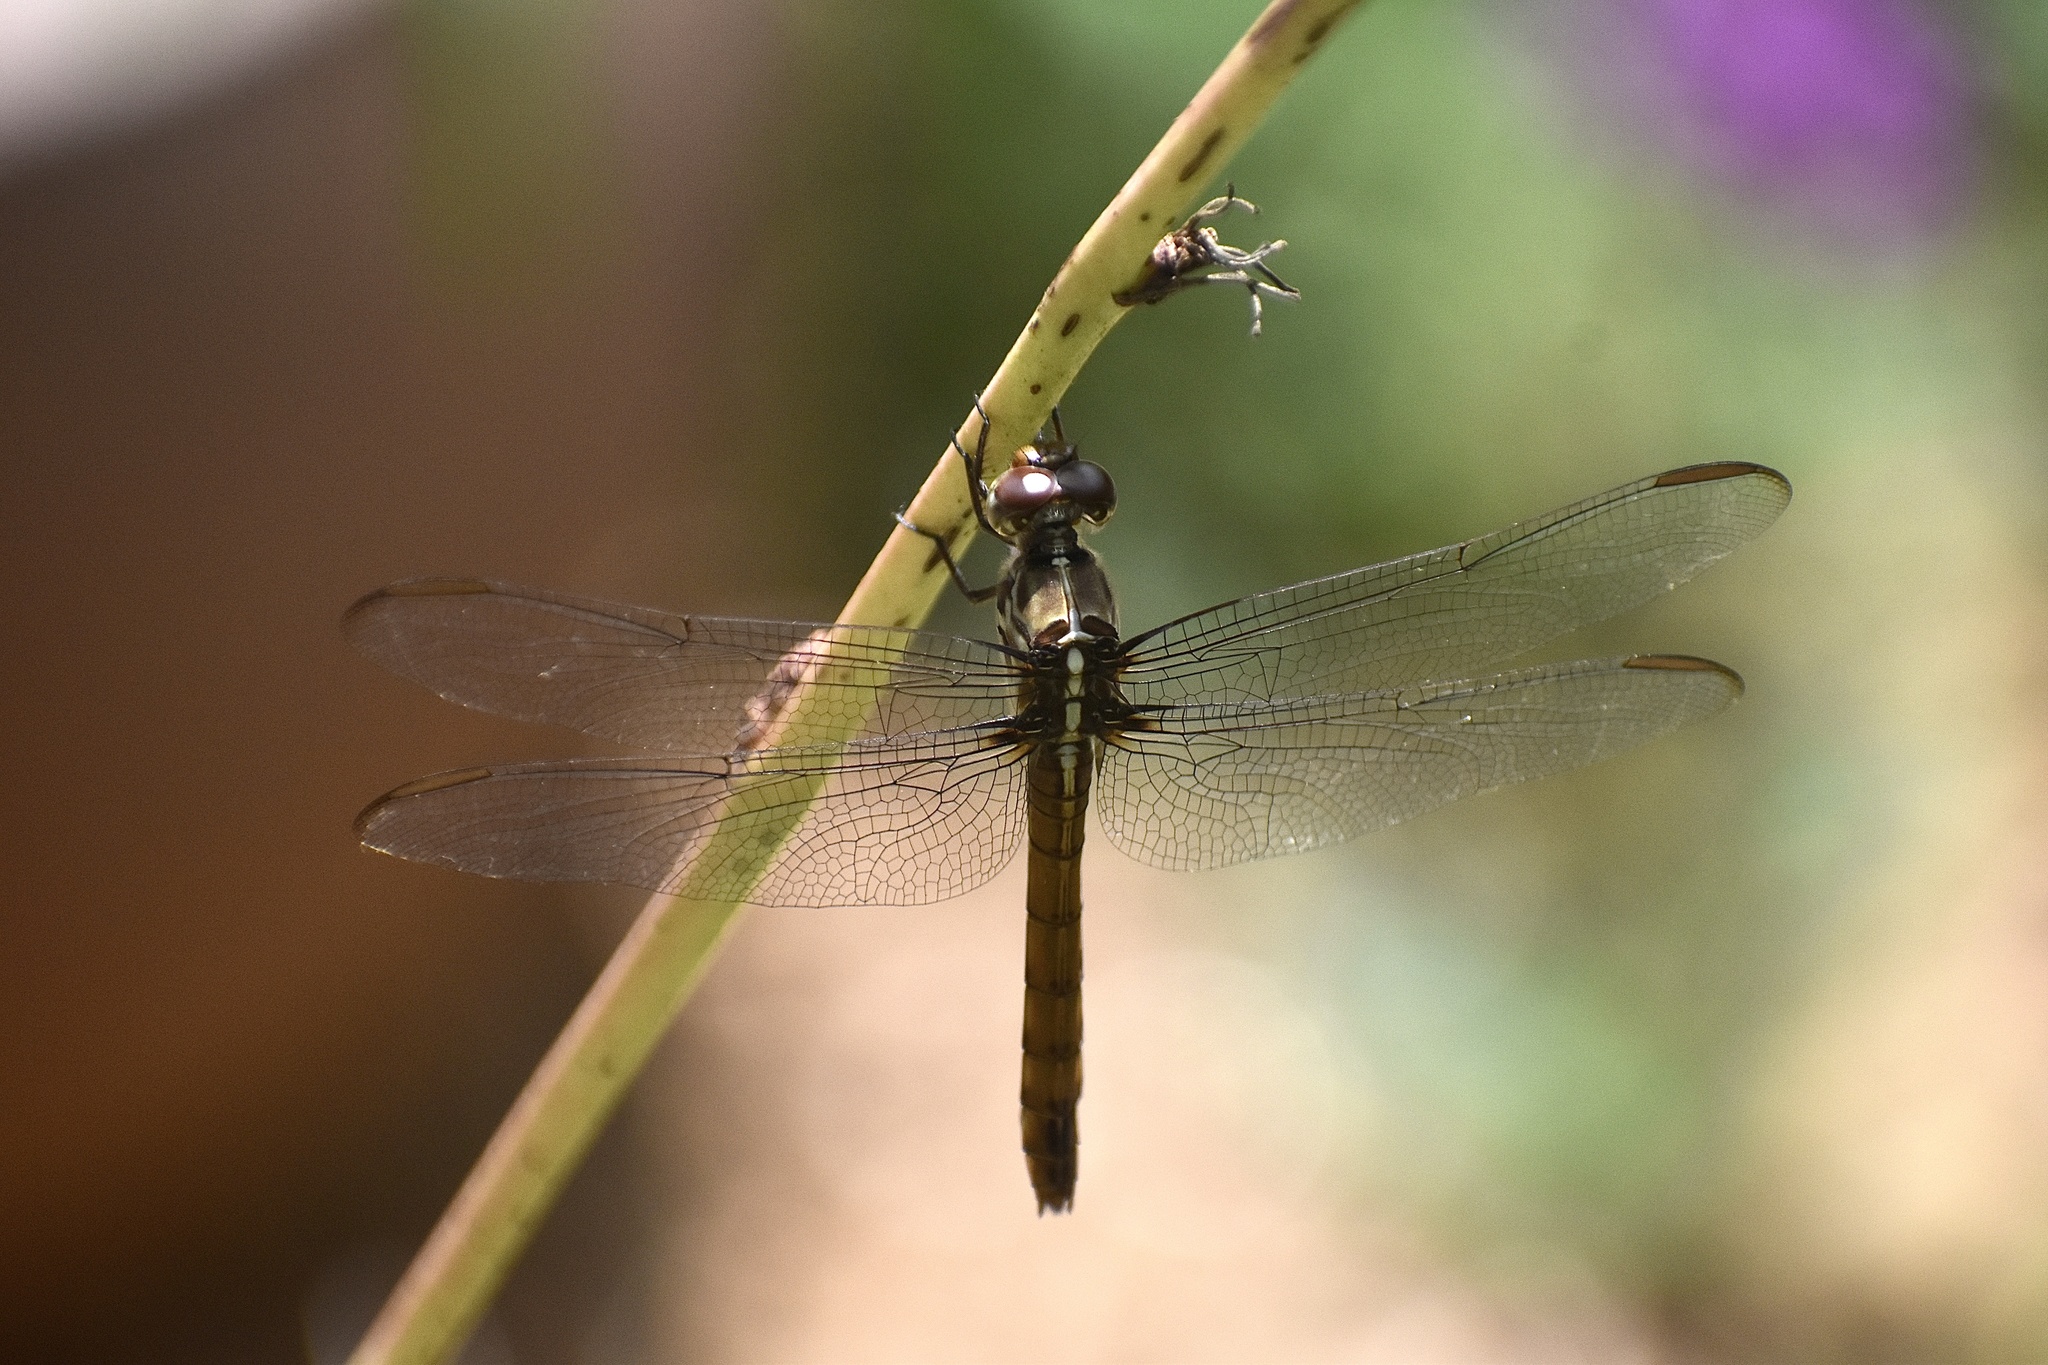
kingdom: Animalia
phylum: Arthropoda
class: Insecta
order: Odonata
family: Libellulidae
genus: Orthemis
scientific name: Orthemis ferruginea
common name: Roseate skimmer
